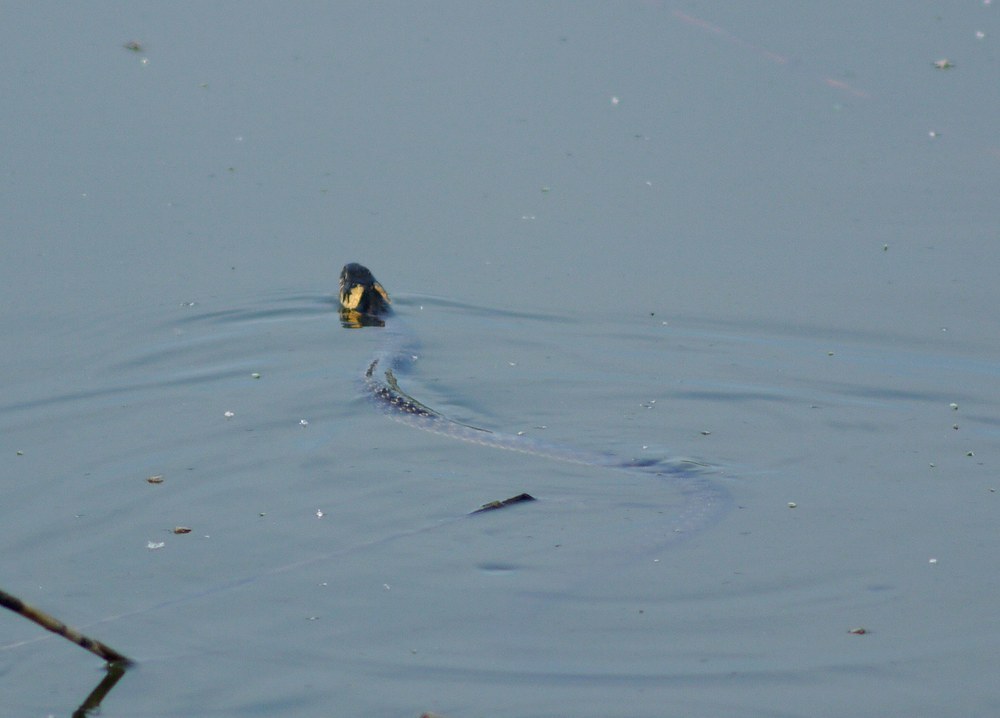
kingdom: Animalia
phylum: Chordata
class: Squamata
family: Colubridae
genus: Natrix
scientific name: Natrix natrix
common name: Grass snake
